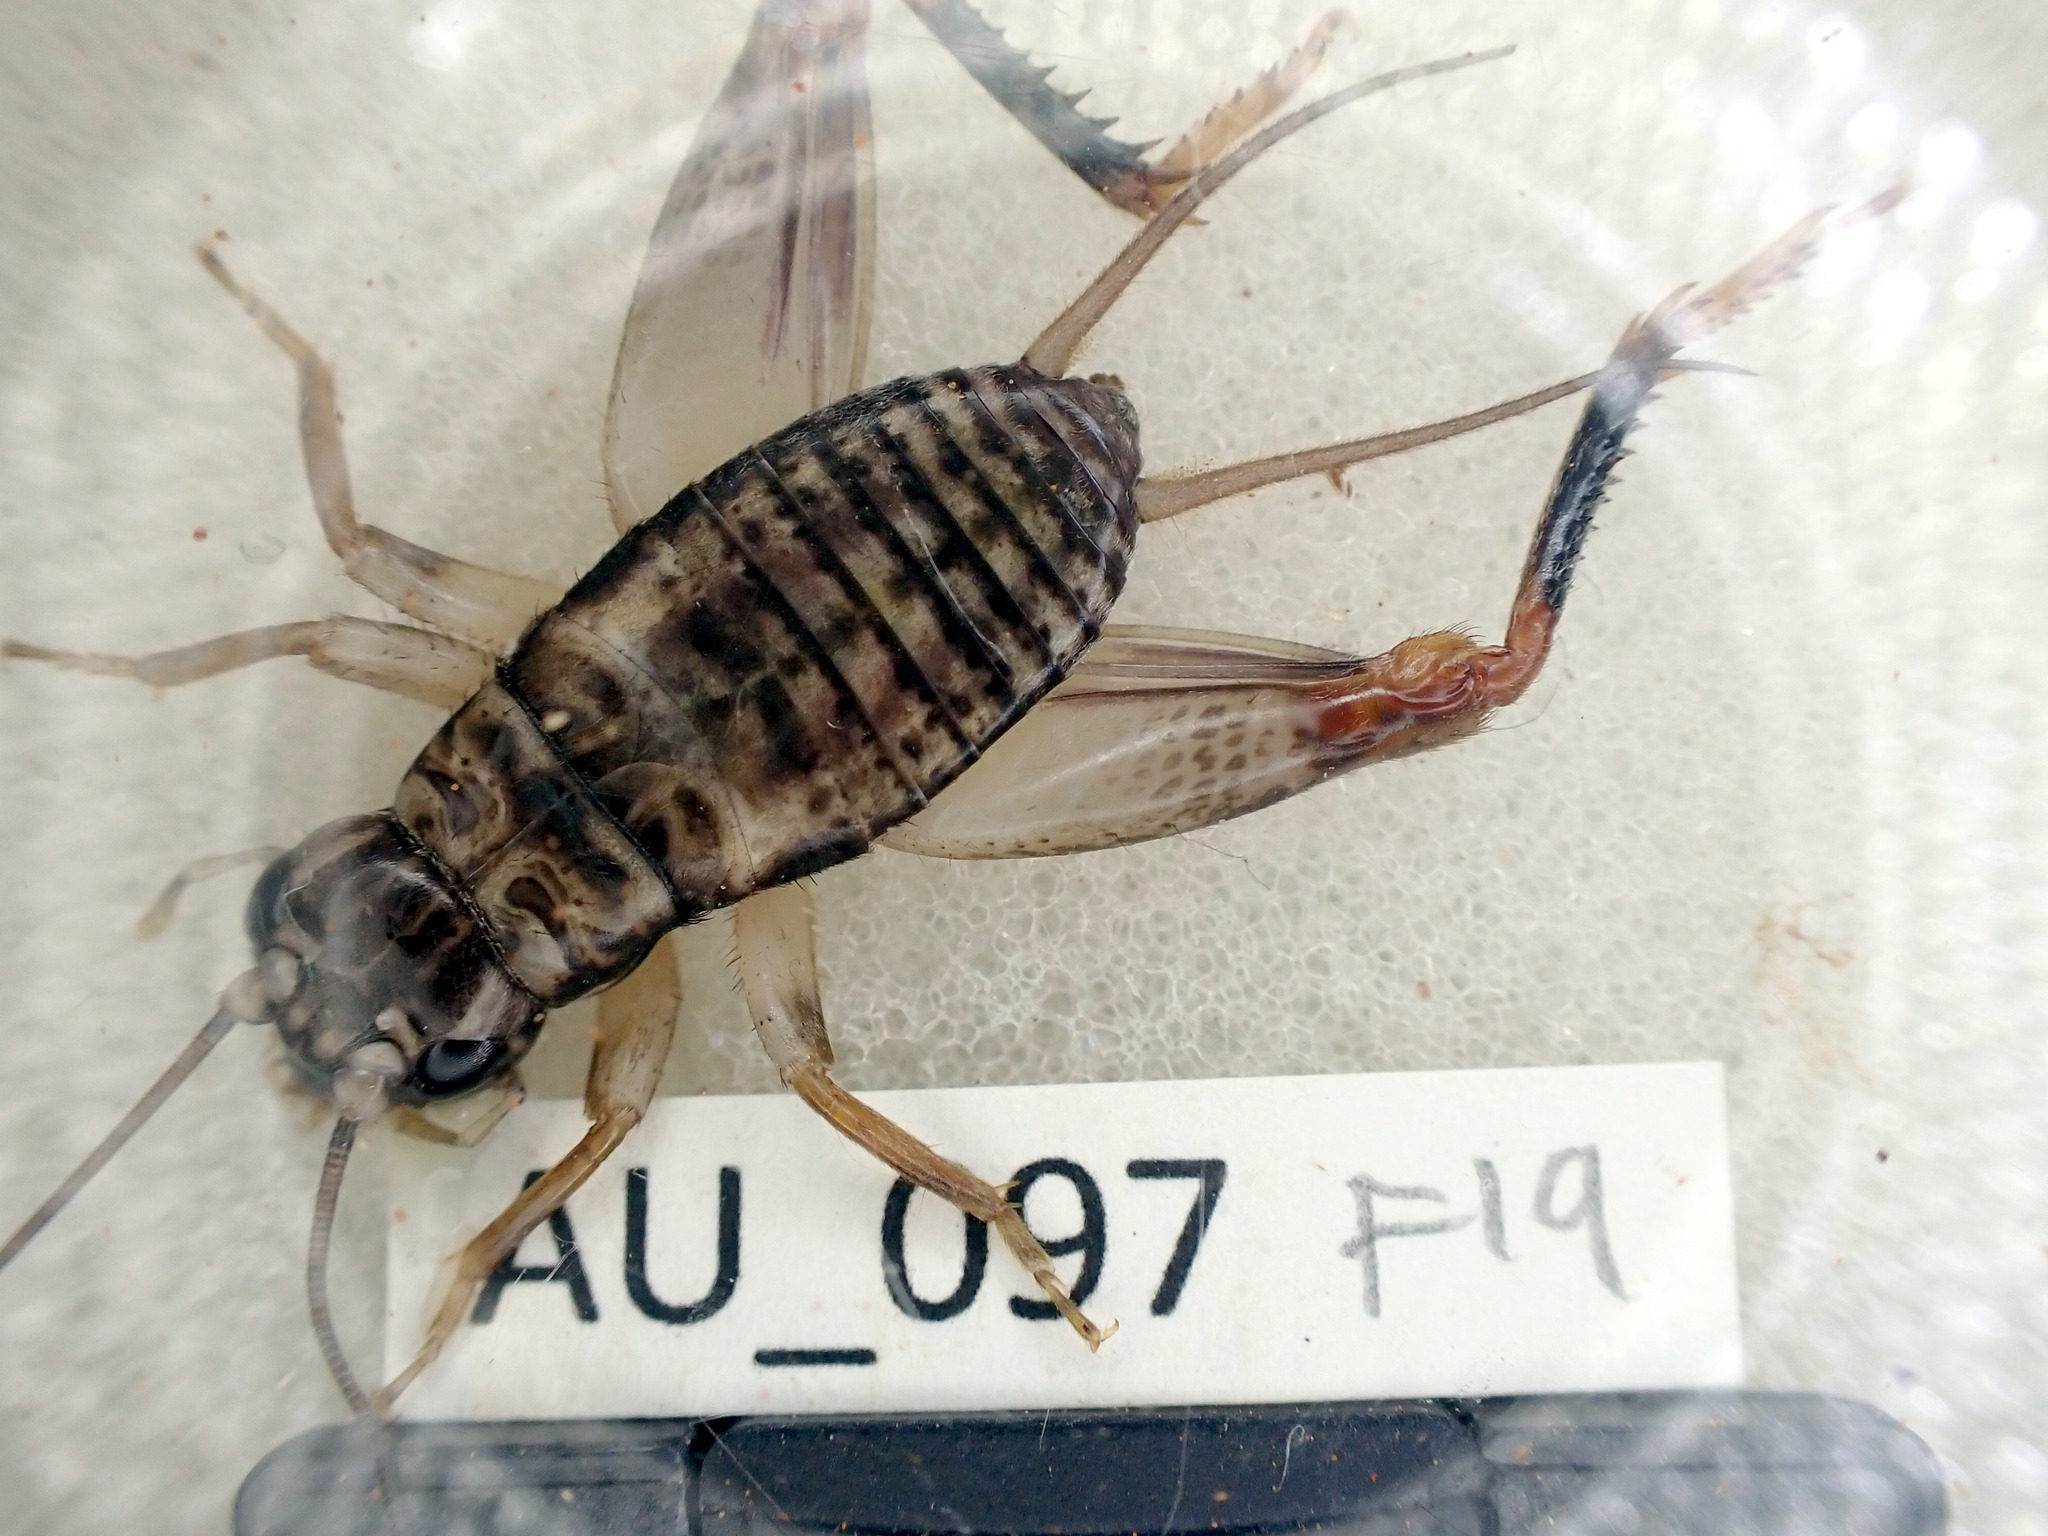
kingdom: Animalia
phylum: Arthropoda
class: Insecta
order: Orthoptera
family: Gryllidae
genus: Mjobergella
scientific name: Mjobergella warra
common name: Coastal big-headed forest cricket
